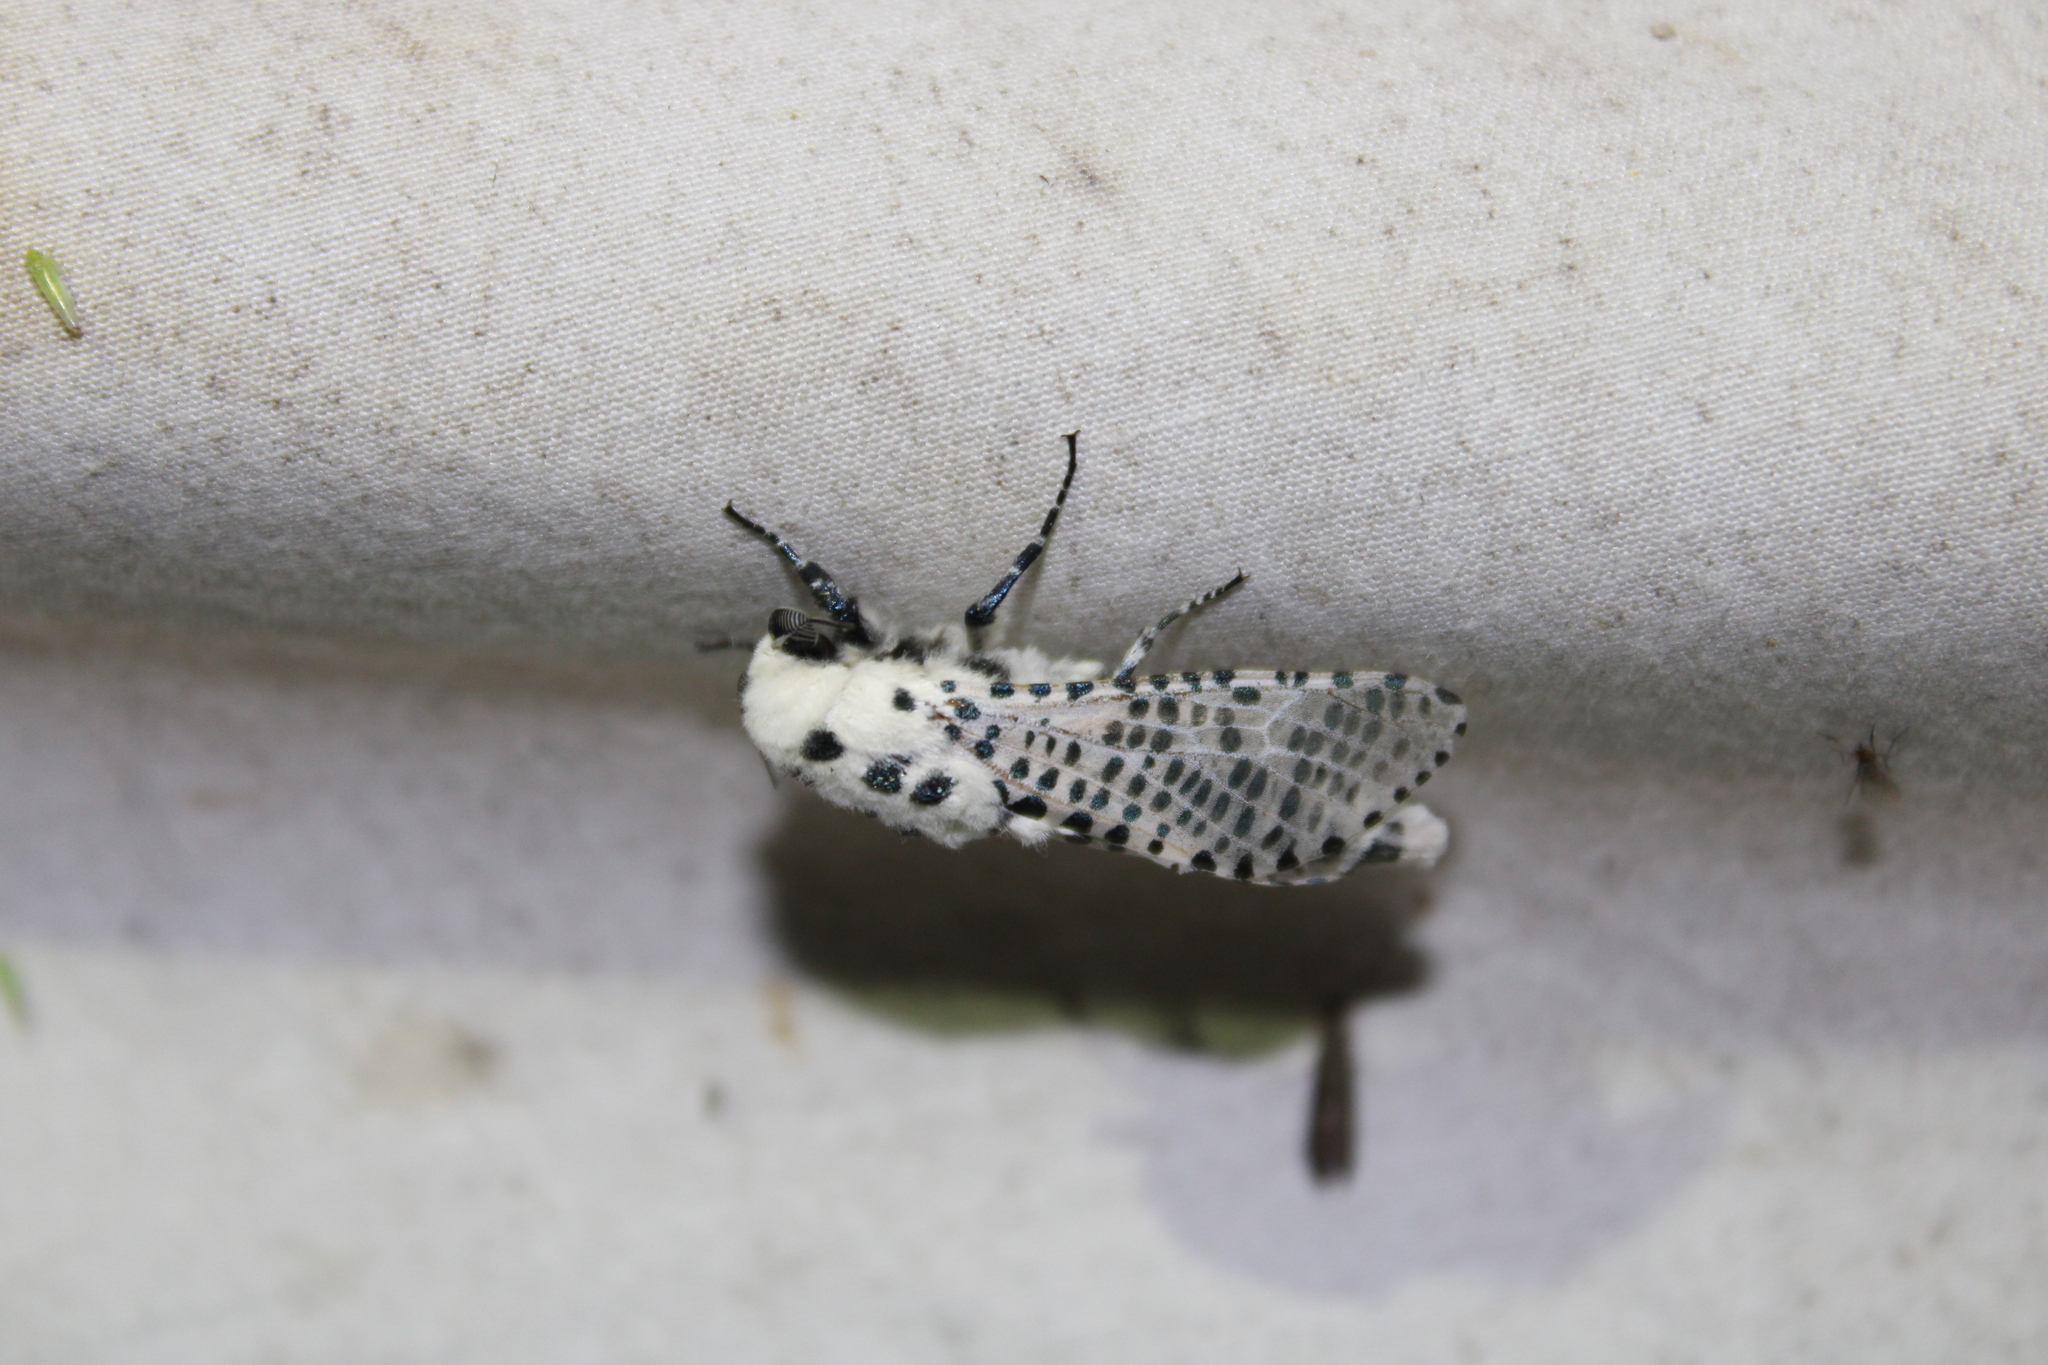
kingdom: Animalia
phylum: Arthropoda
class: Insecta
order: Lepidoptera
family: Cossidae
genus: Zeuzera
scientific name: Zeuzera pyrina
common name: Leopard moth
